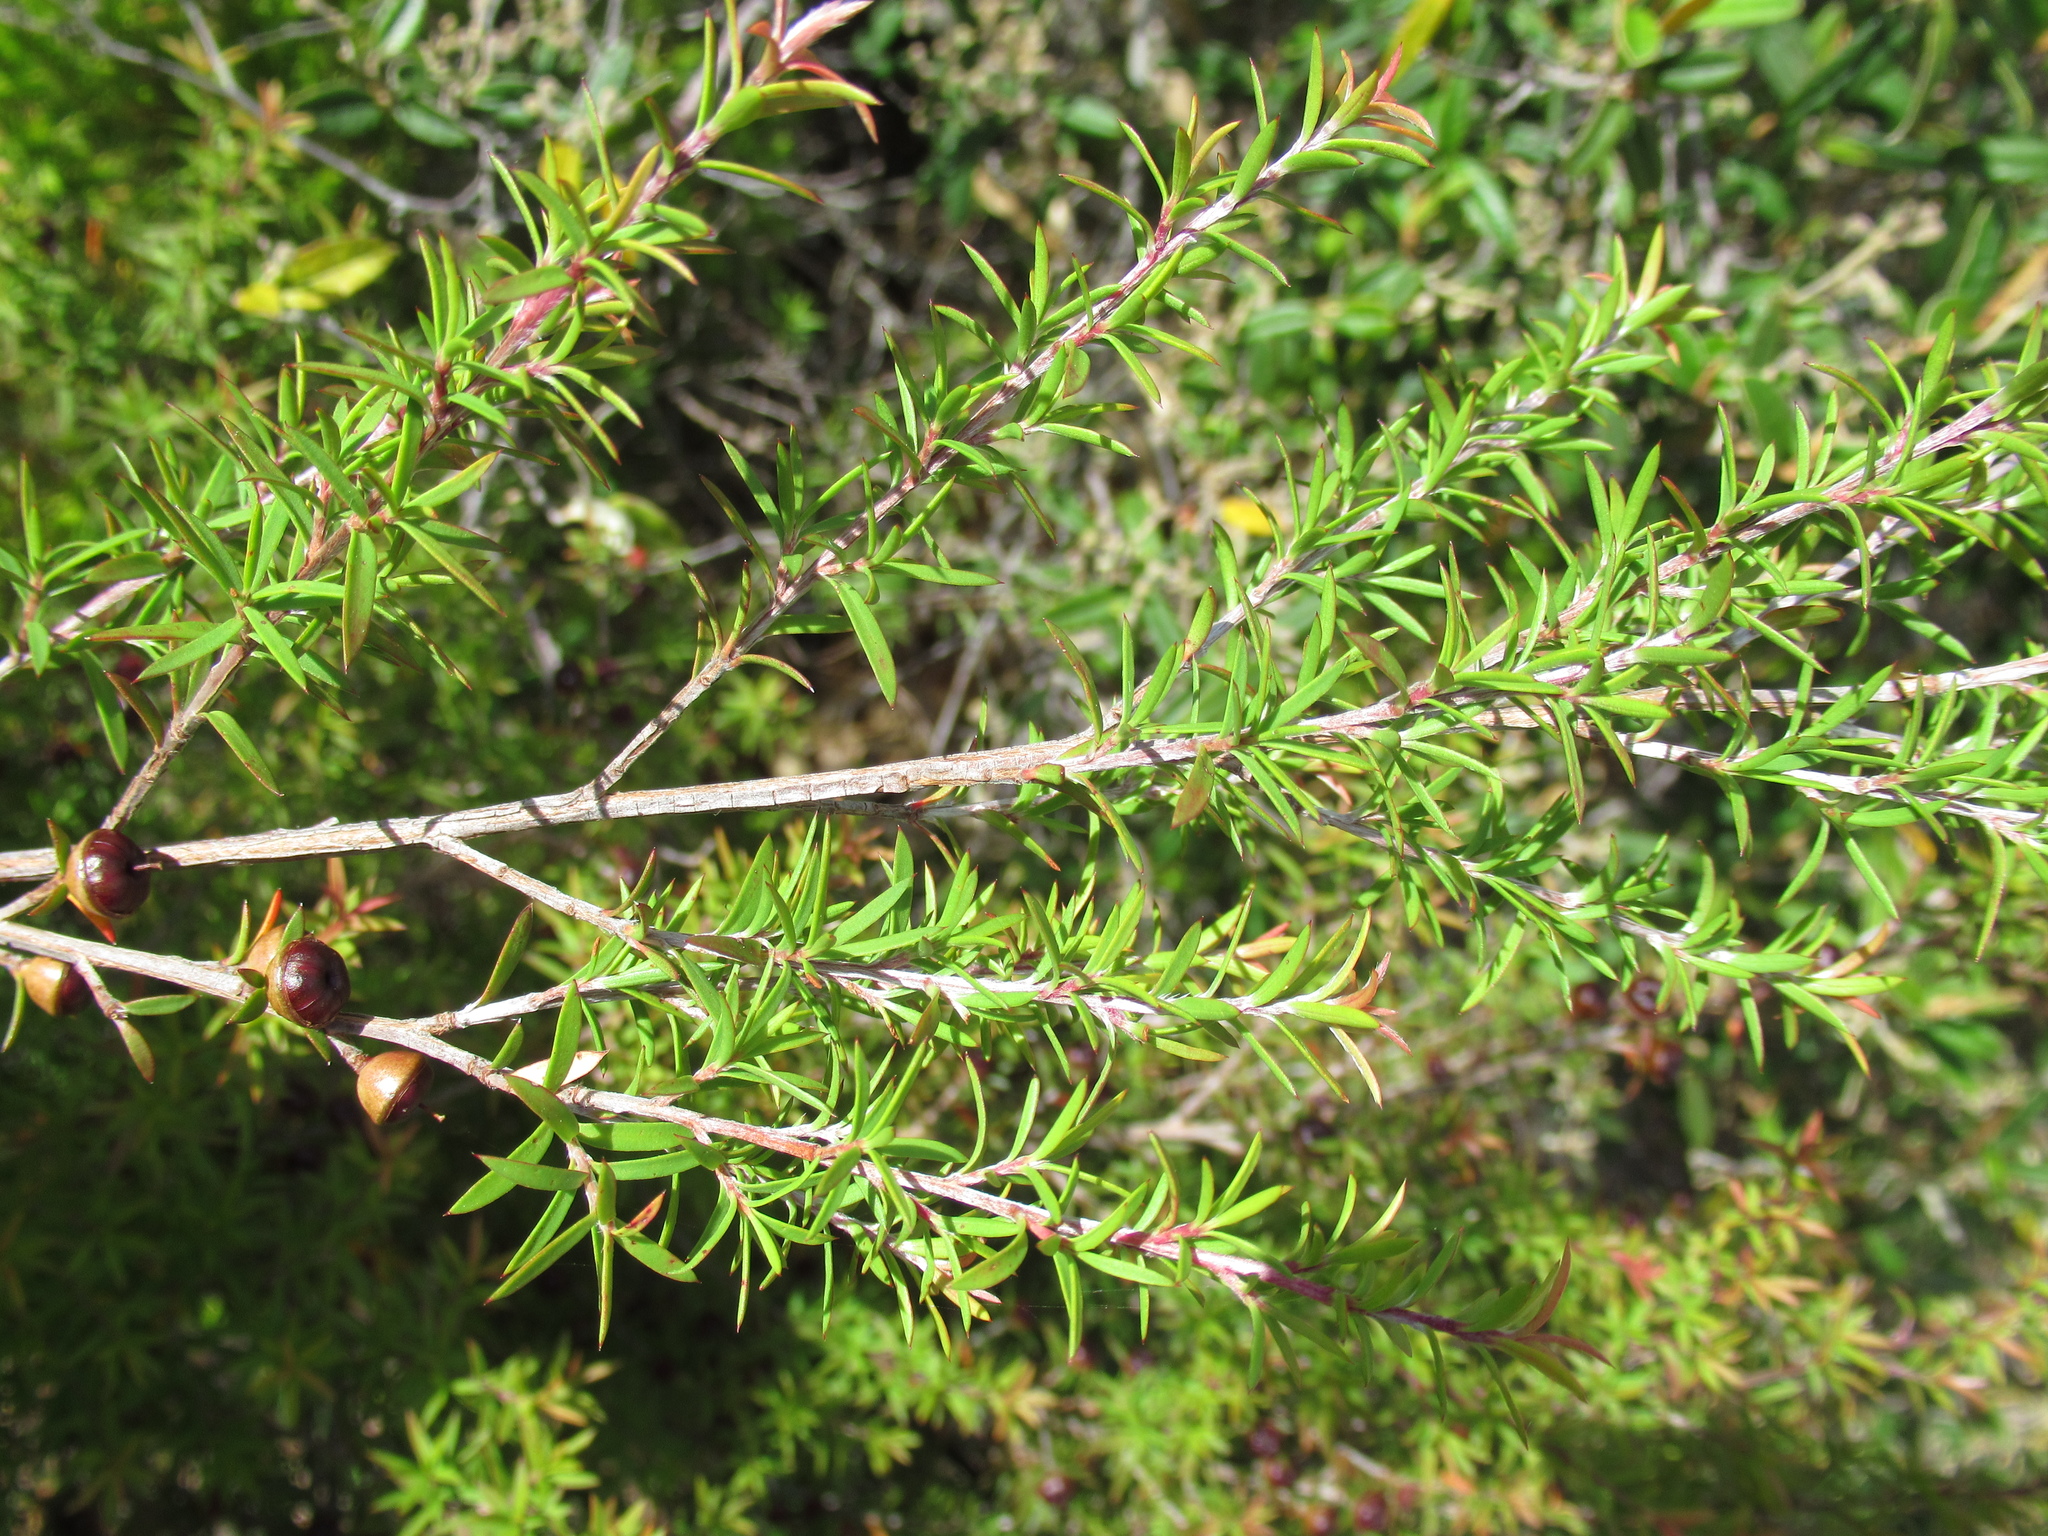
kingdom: Plantae
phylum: Tracheophyta
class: Magnoliopsida
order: Myrtales
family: Myrtaceae
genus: Leptospermum
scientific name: Leptospermum scoparium
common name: Broom tea-tree
